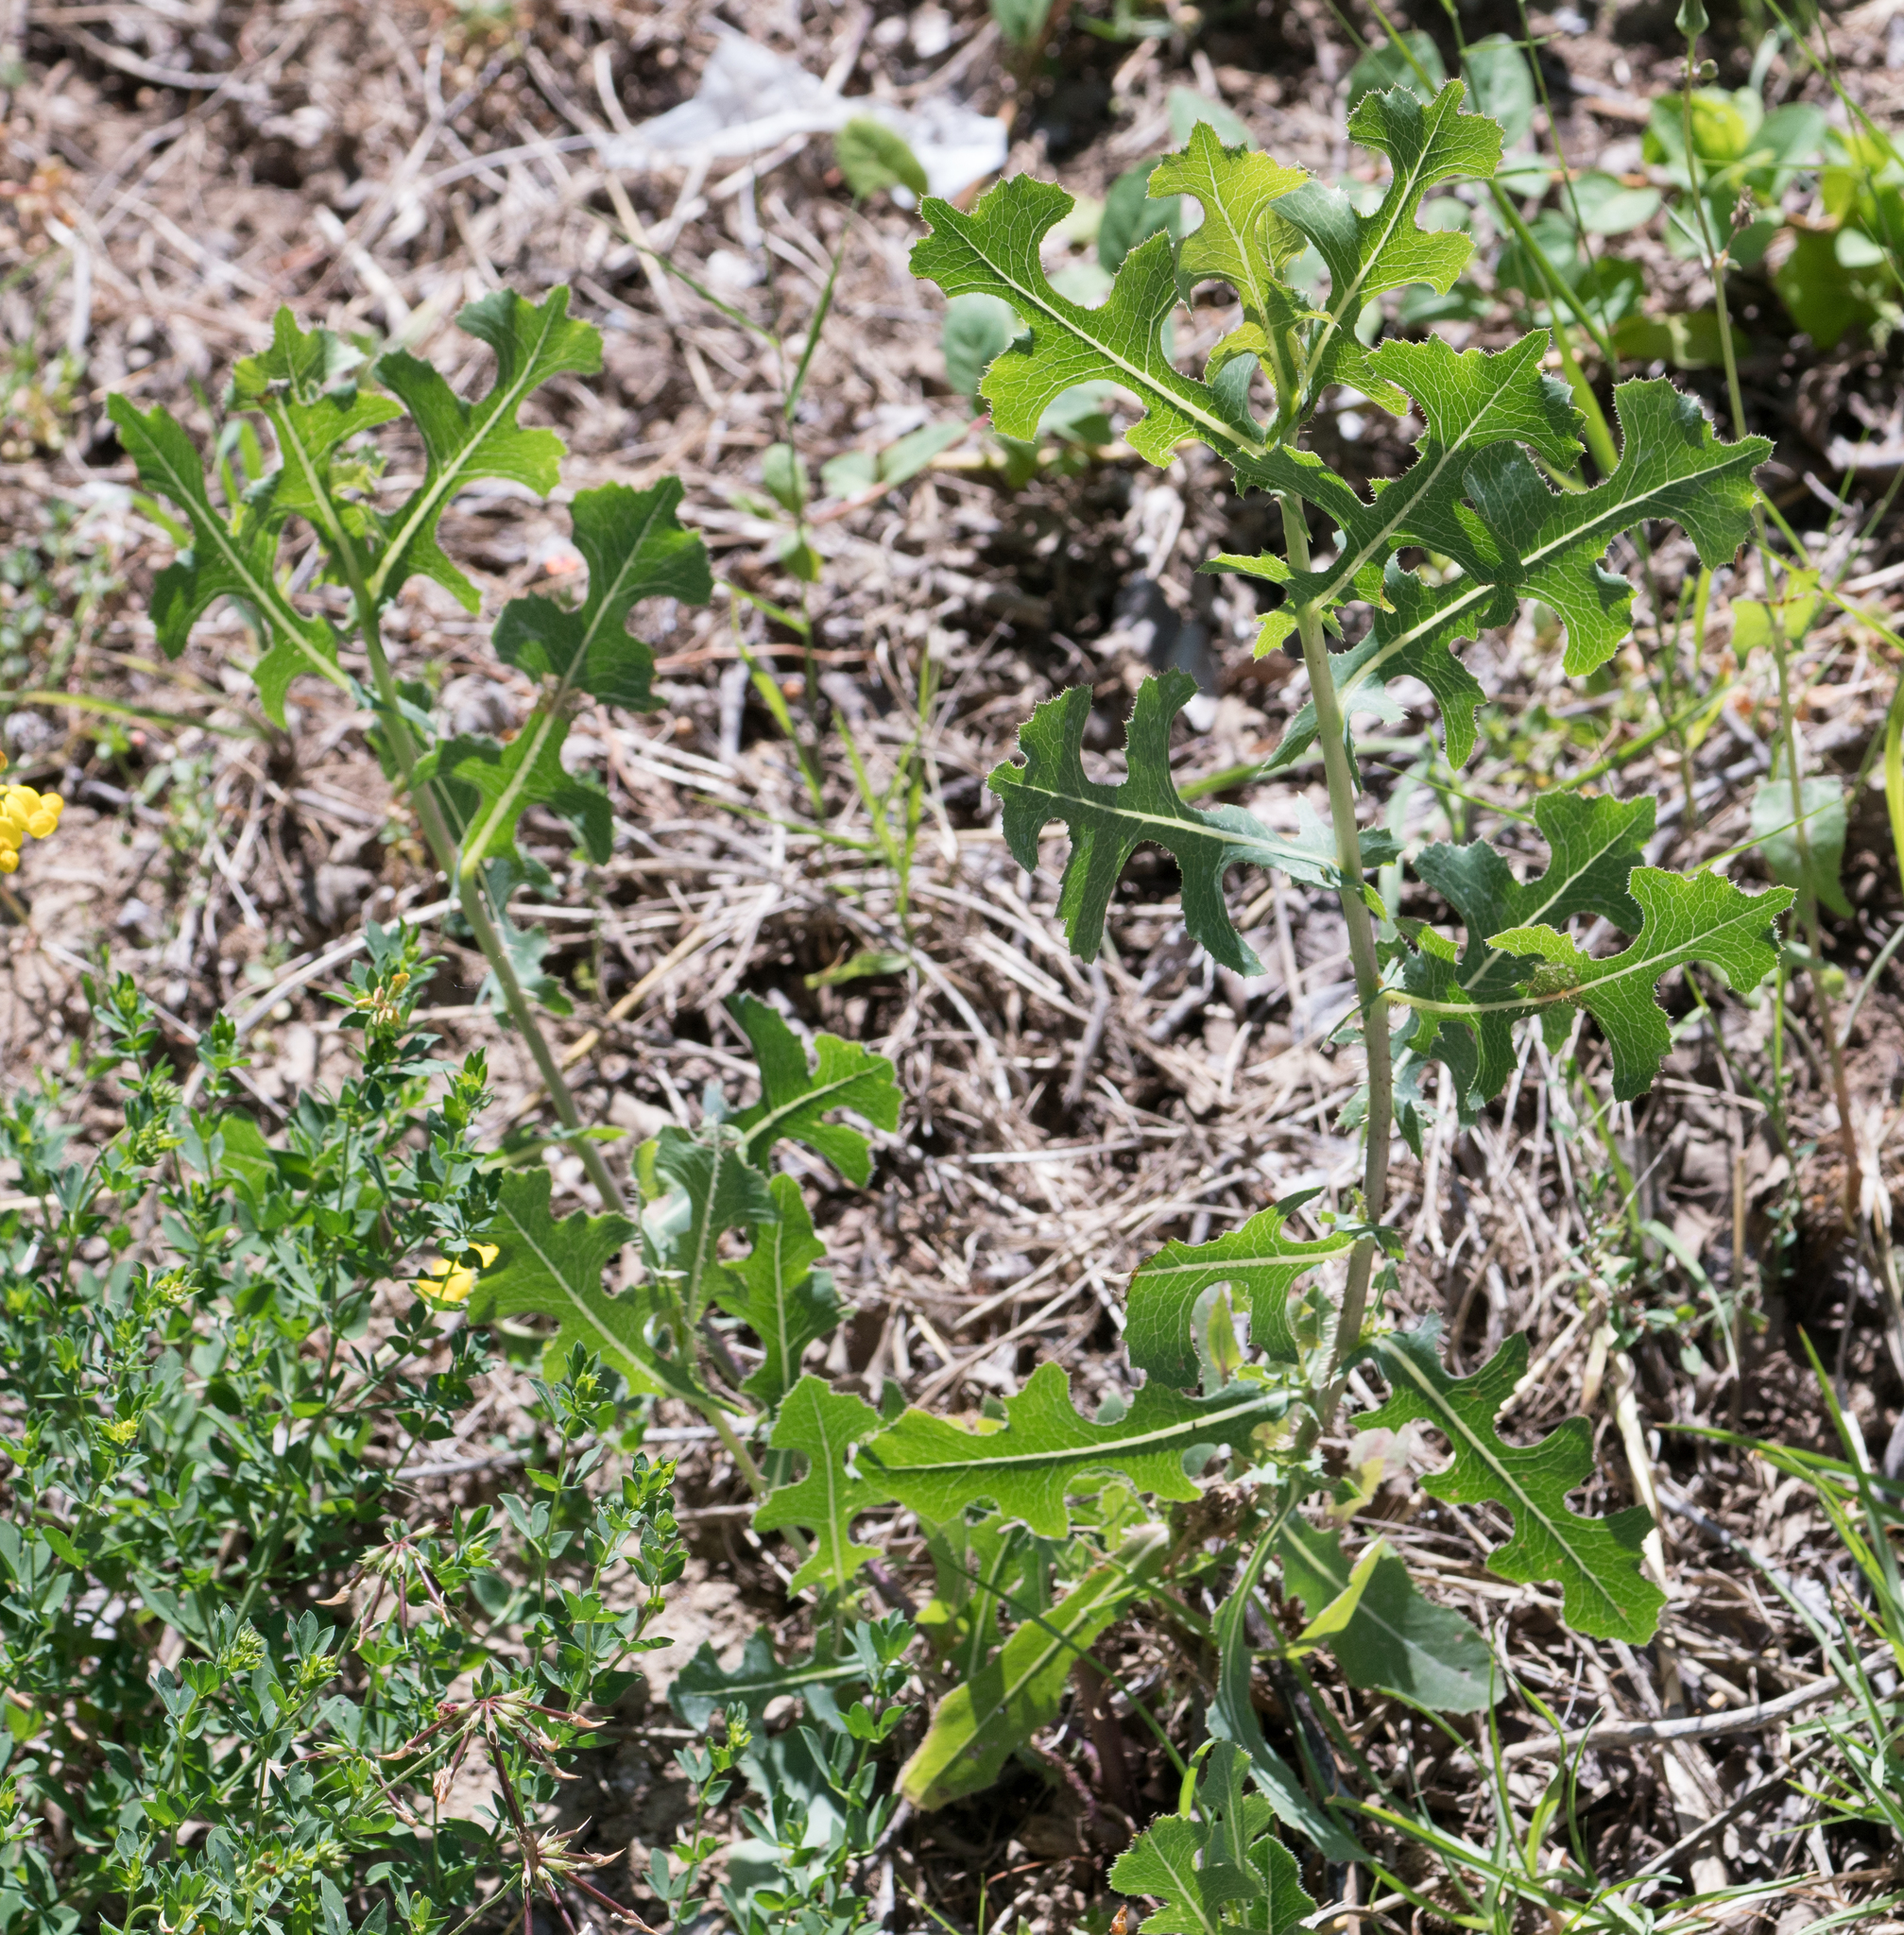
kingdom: Plantae
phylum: Tracheophyta
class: Magnoliopsida
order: Asterales
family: Asteraceae
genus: Lactuca
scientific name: Lactuca serriola
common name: Prickly lettuce
